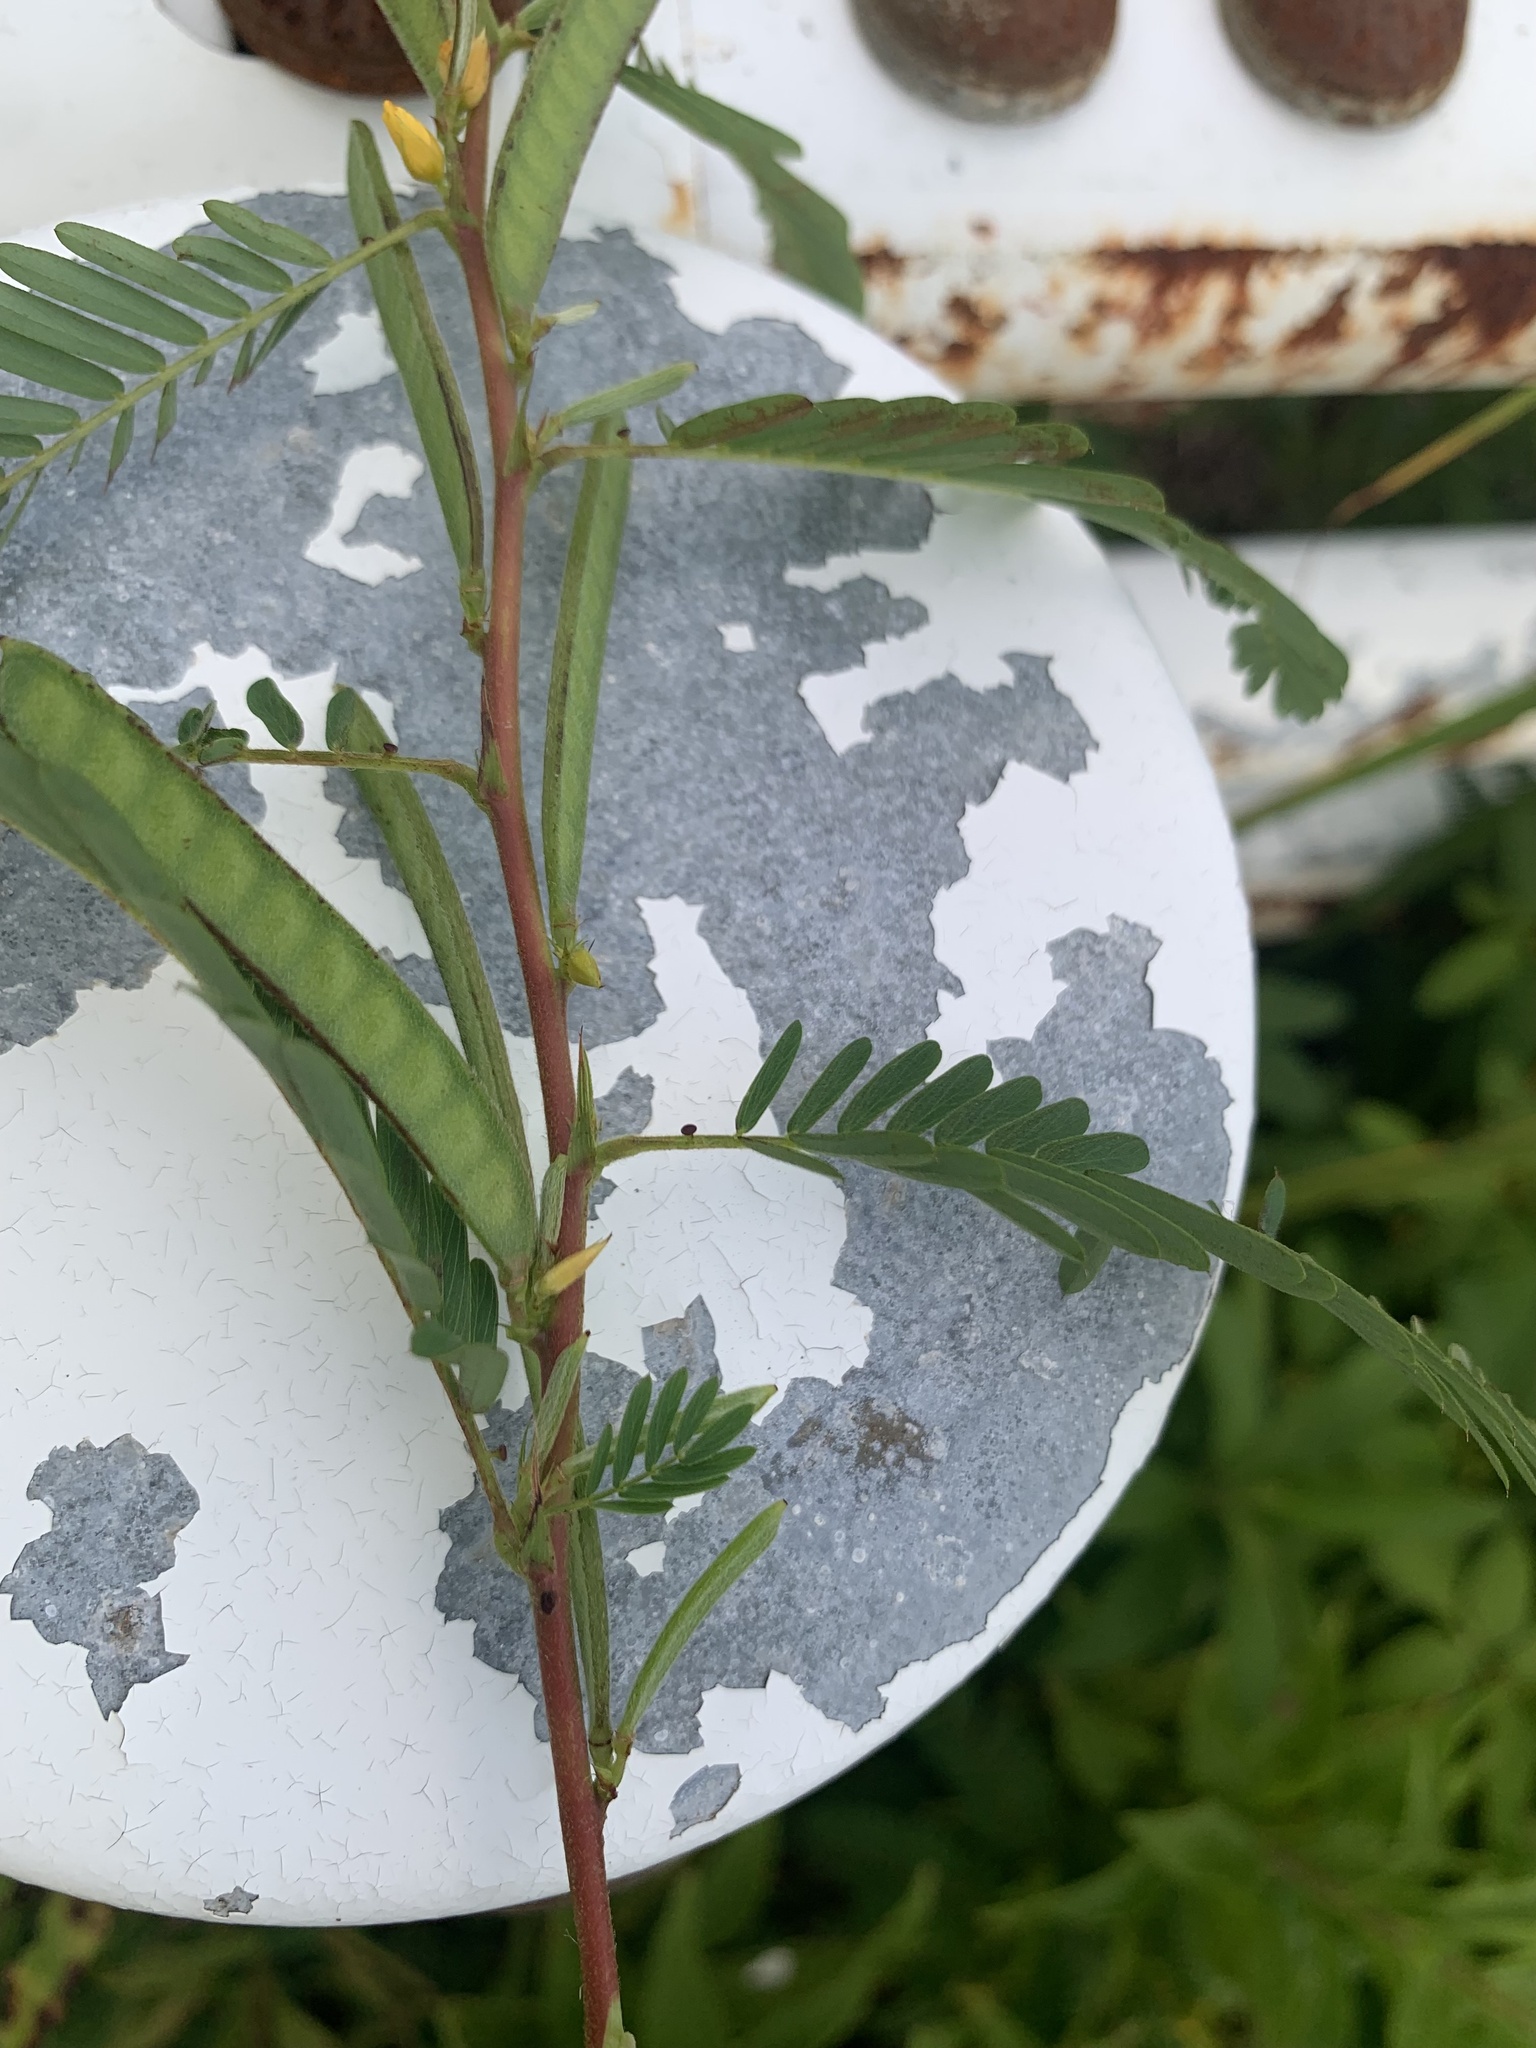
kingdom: Plantae
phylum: Tracheophyta
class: Magnoliopsida
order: Fabales
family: Fabaceae
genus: Chamaecrista
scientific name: Chamaecrista nictitans
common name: Sensitive cassia
